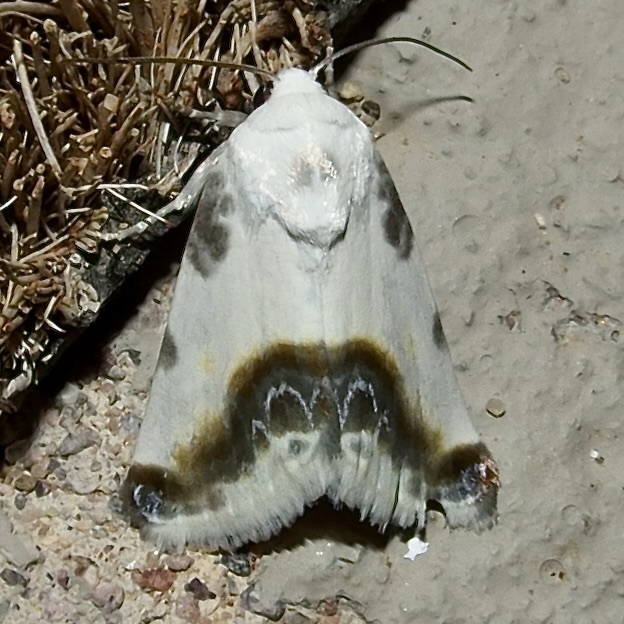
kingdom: Animalia
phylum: Arthropoda
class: Insecta
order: Lepidoptera
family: Noctuidae
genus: Acontia
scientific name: Acontia chea
